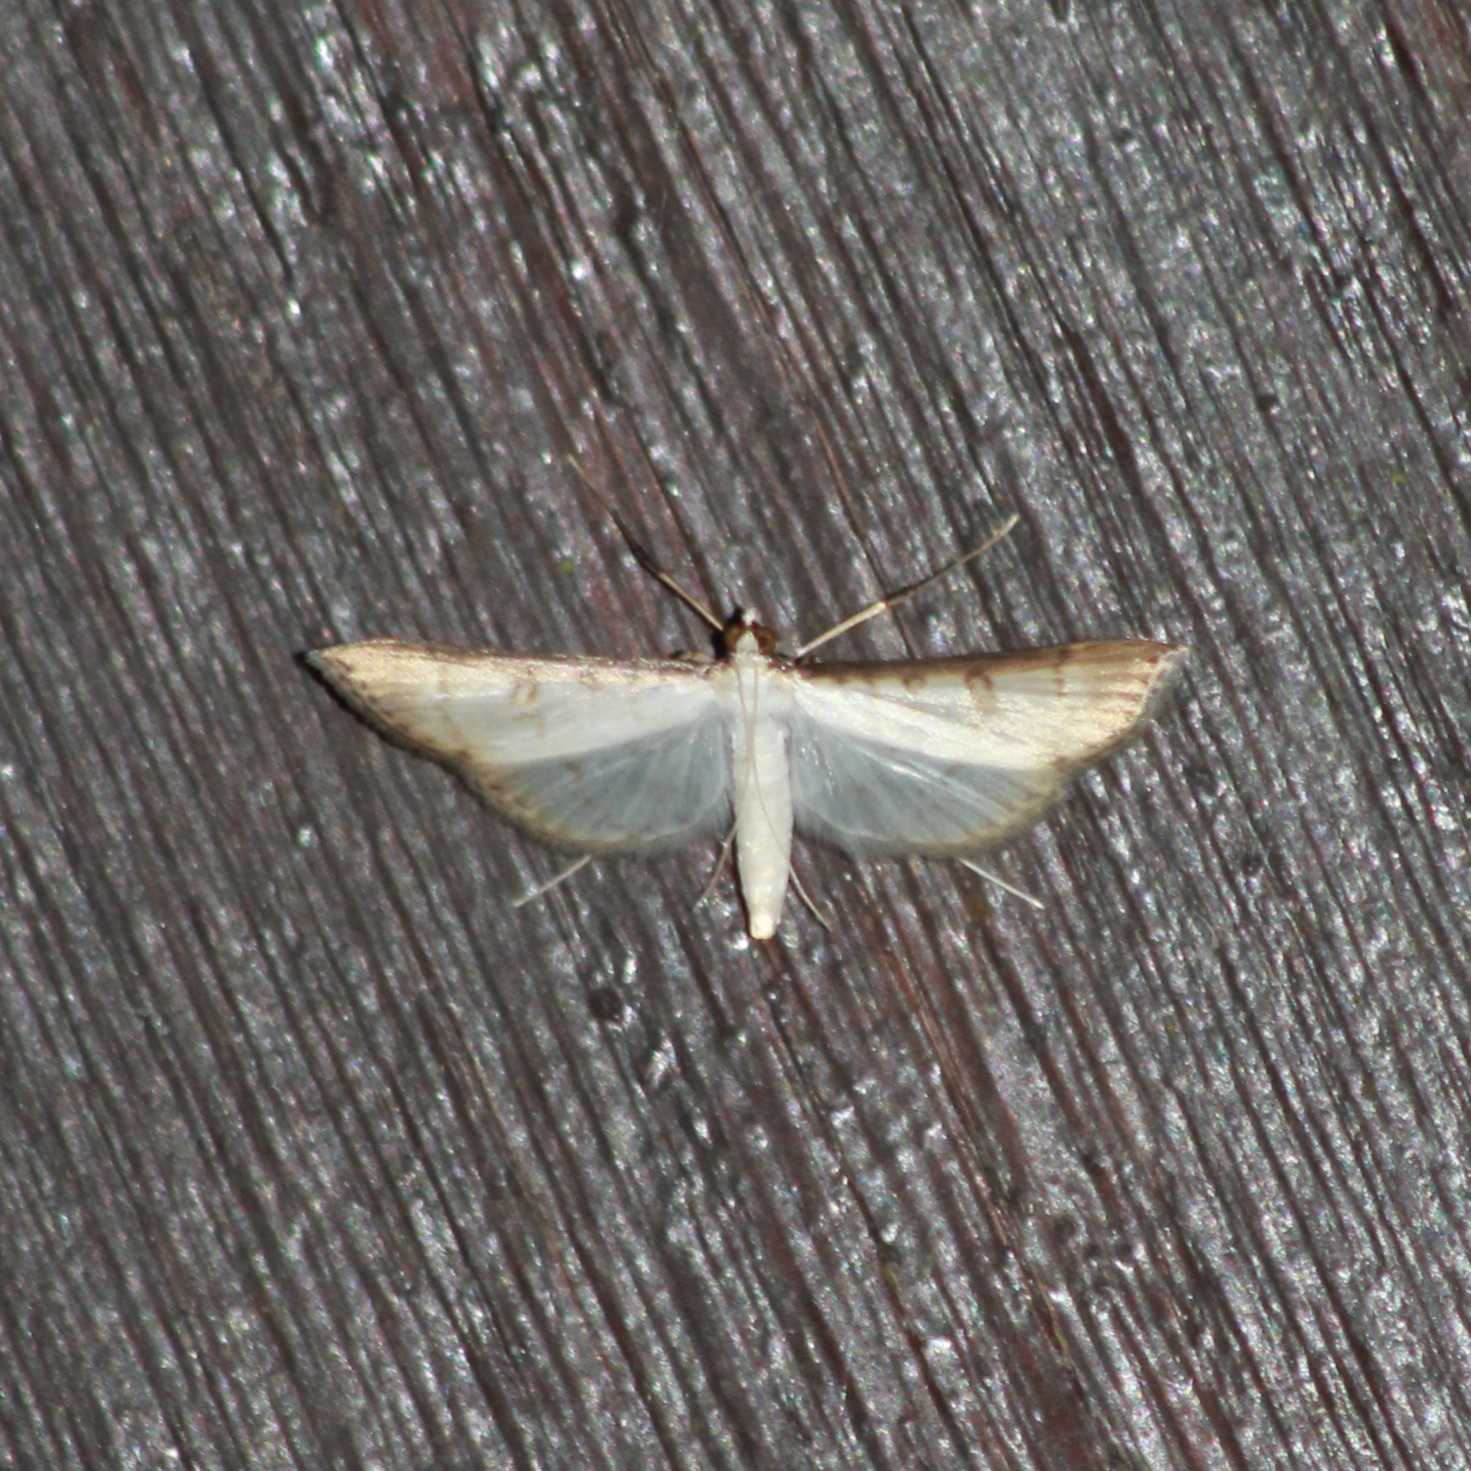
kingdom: Animalia
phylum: Arthropoda
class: Insecta
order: Lepidoptera
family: Crambidae
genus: Stenia
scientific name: Stenia colubralis
